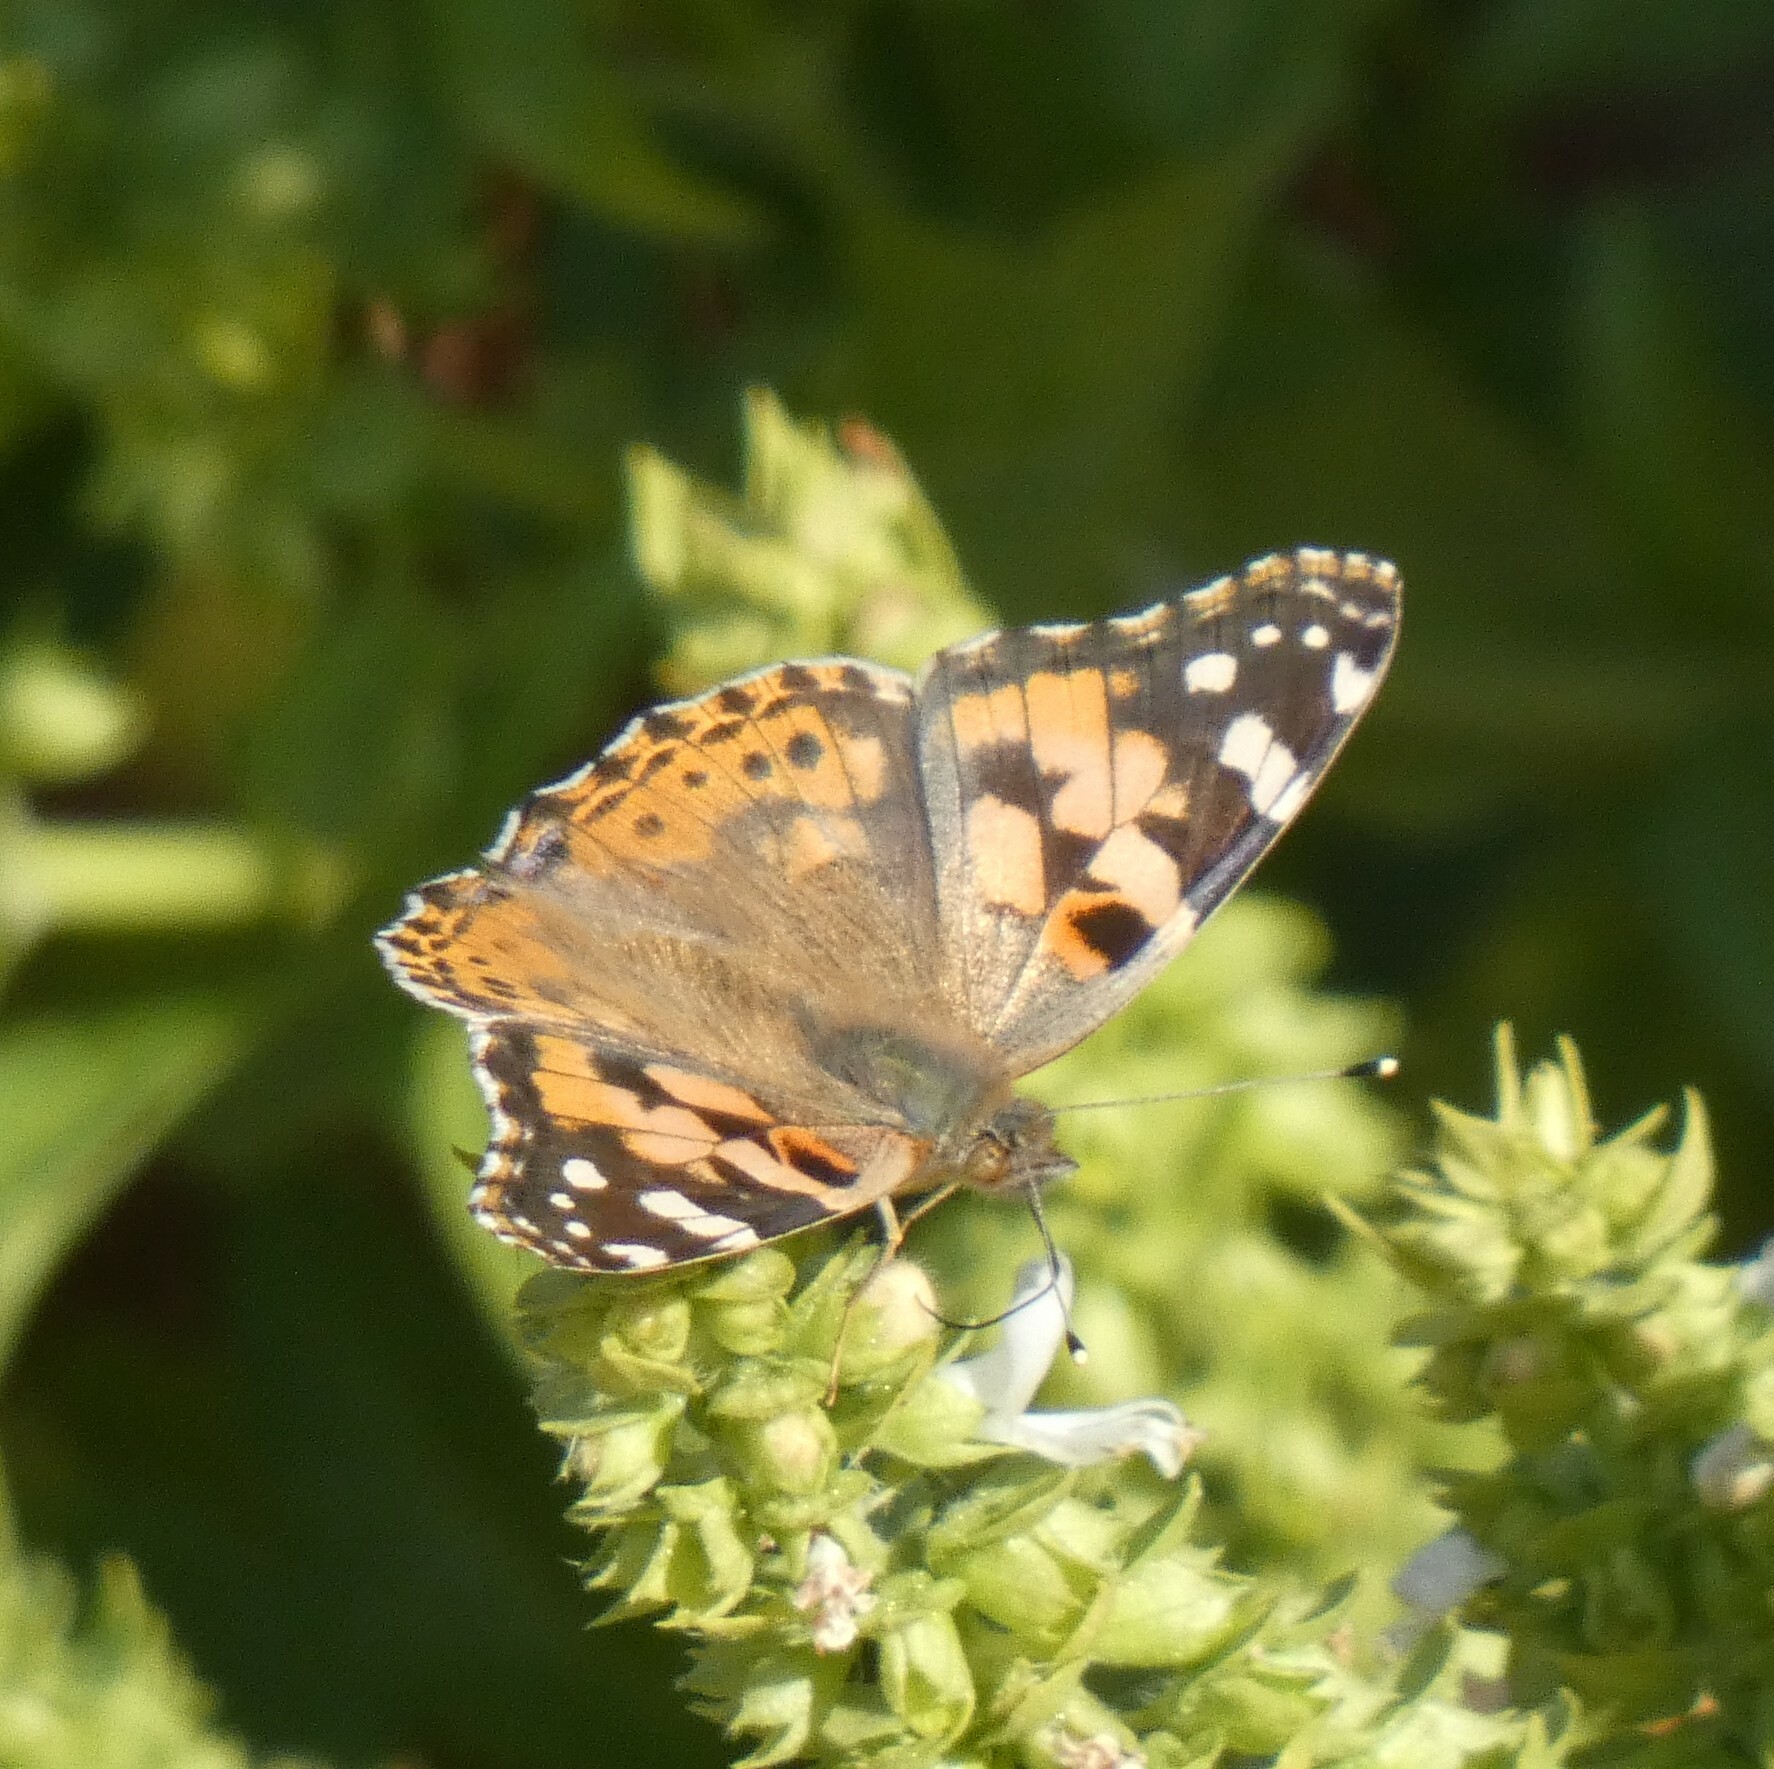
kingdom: Animalia
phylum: Arthropoda
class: Insecta
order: Lepidoptera
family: Nymphalidae
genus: Vanessa
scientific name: Vanessa cardui
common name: Painted lady
